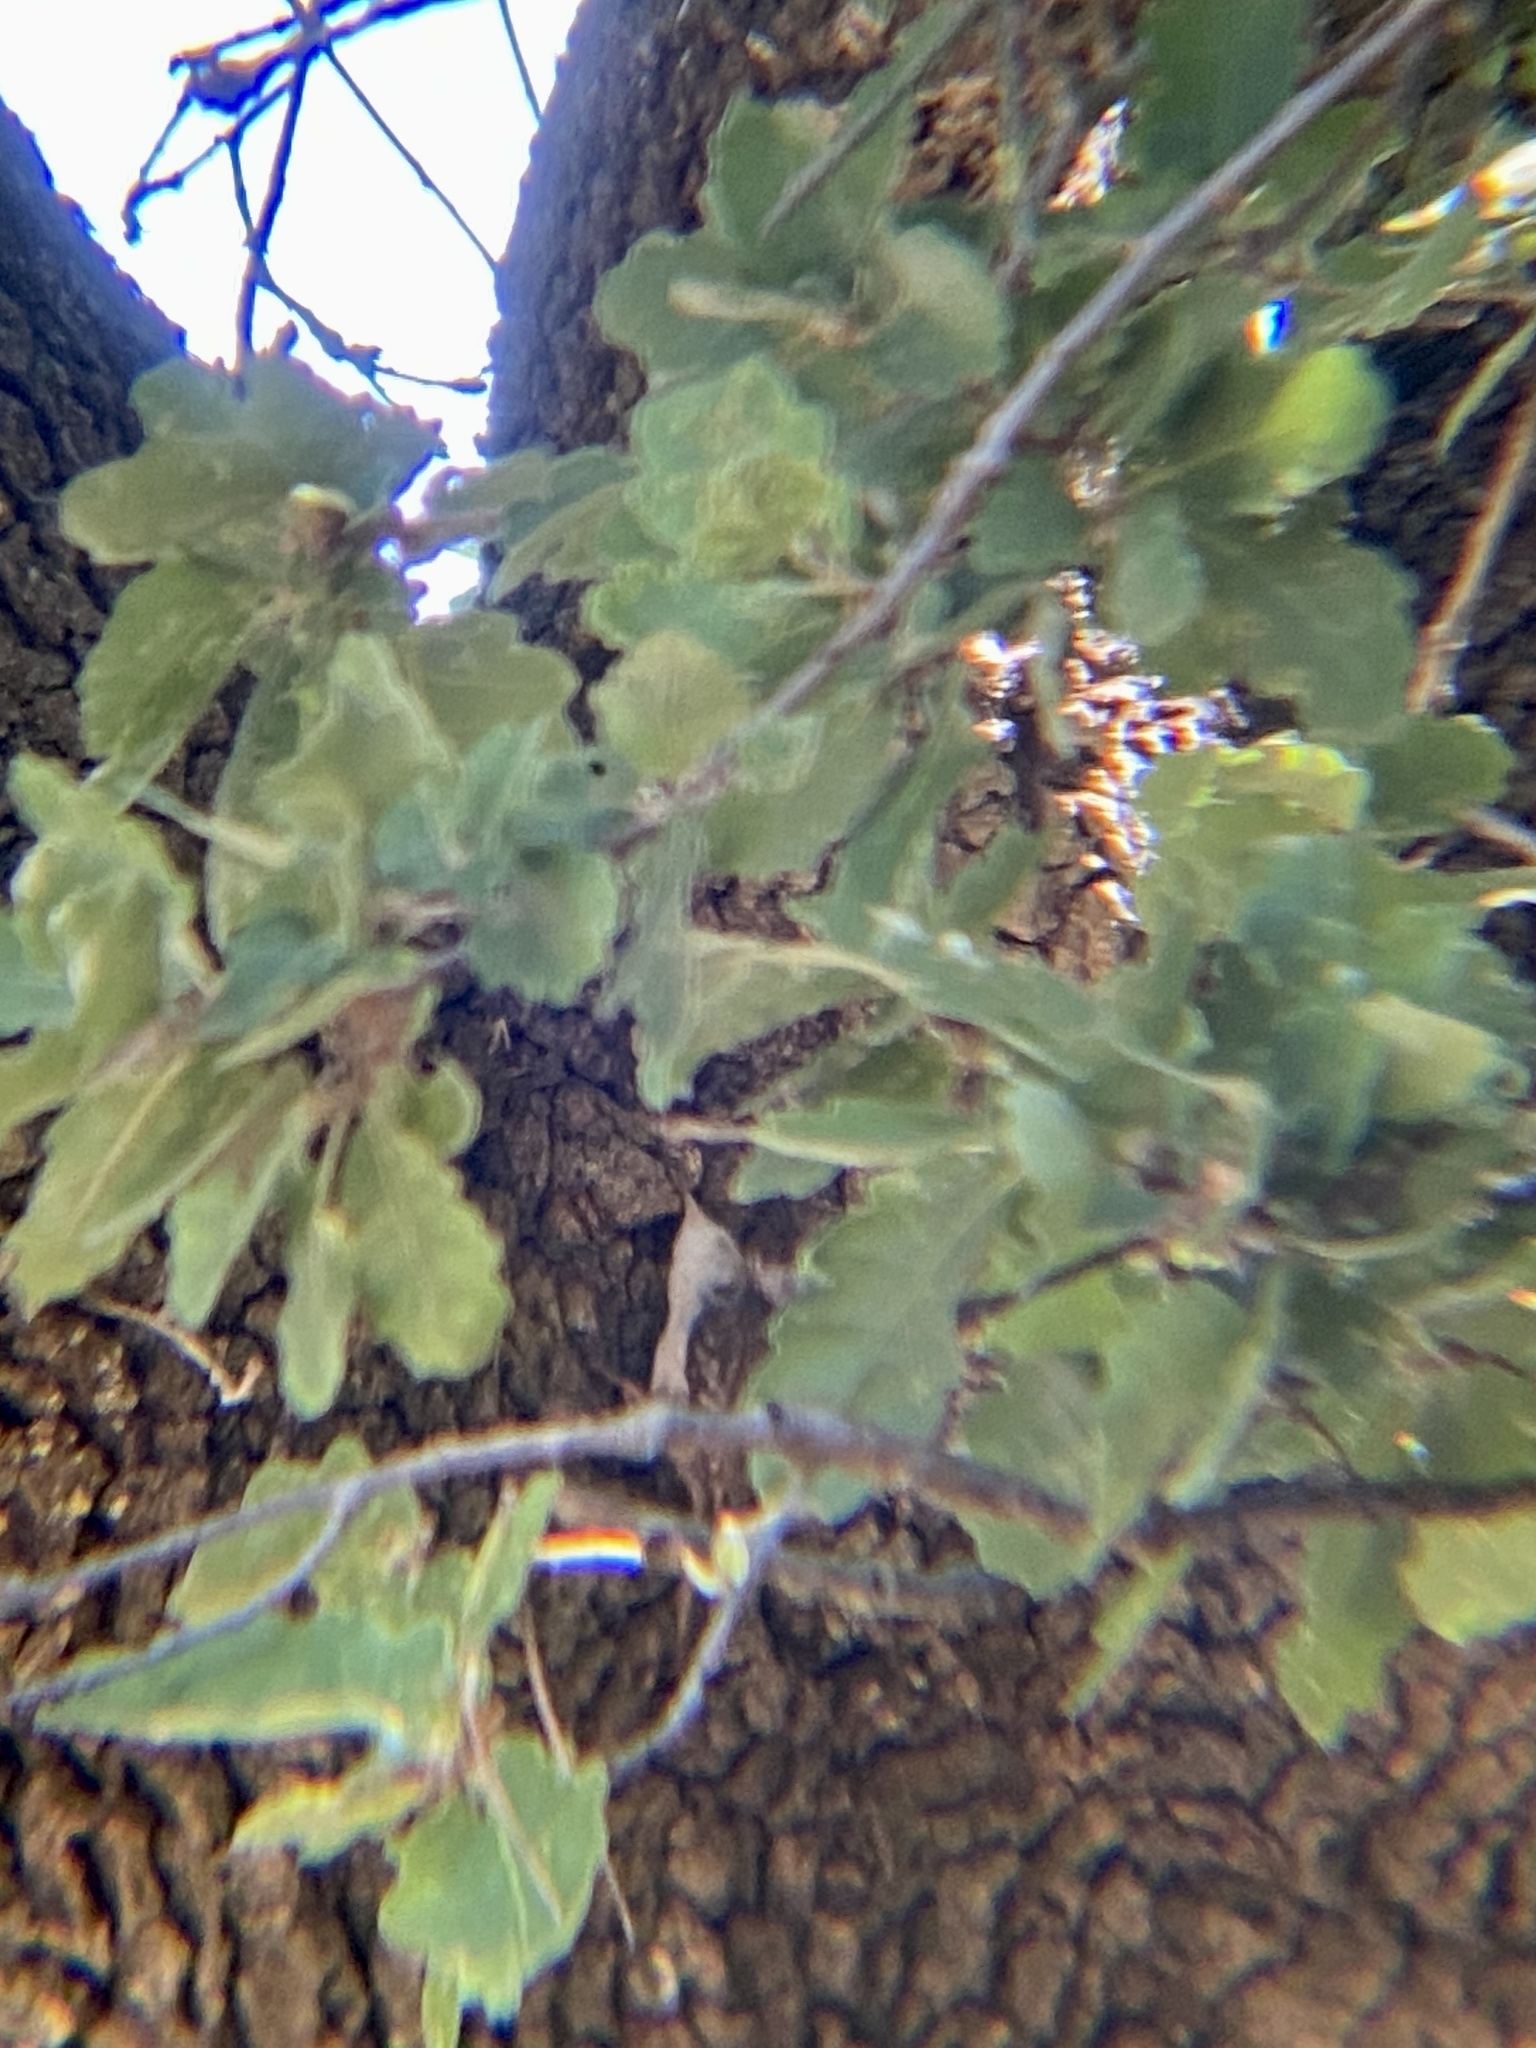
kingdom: Animalia
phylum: Chordata
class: Aves
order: Passeriformes
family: Certhiidae
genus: Certhia
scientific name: Certhia brachydactyla
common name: Short-toed treecreeper
